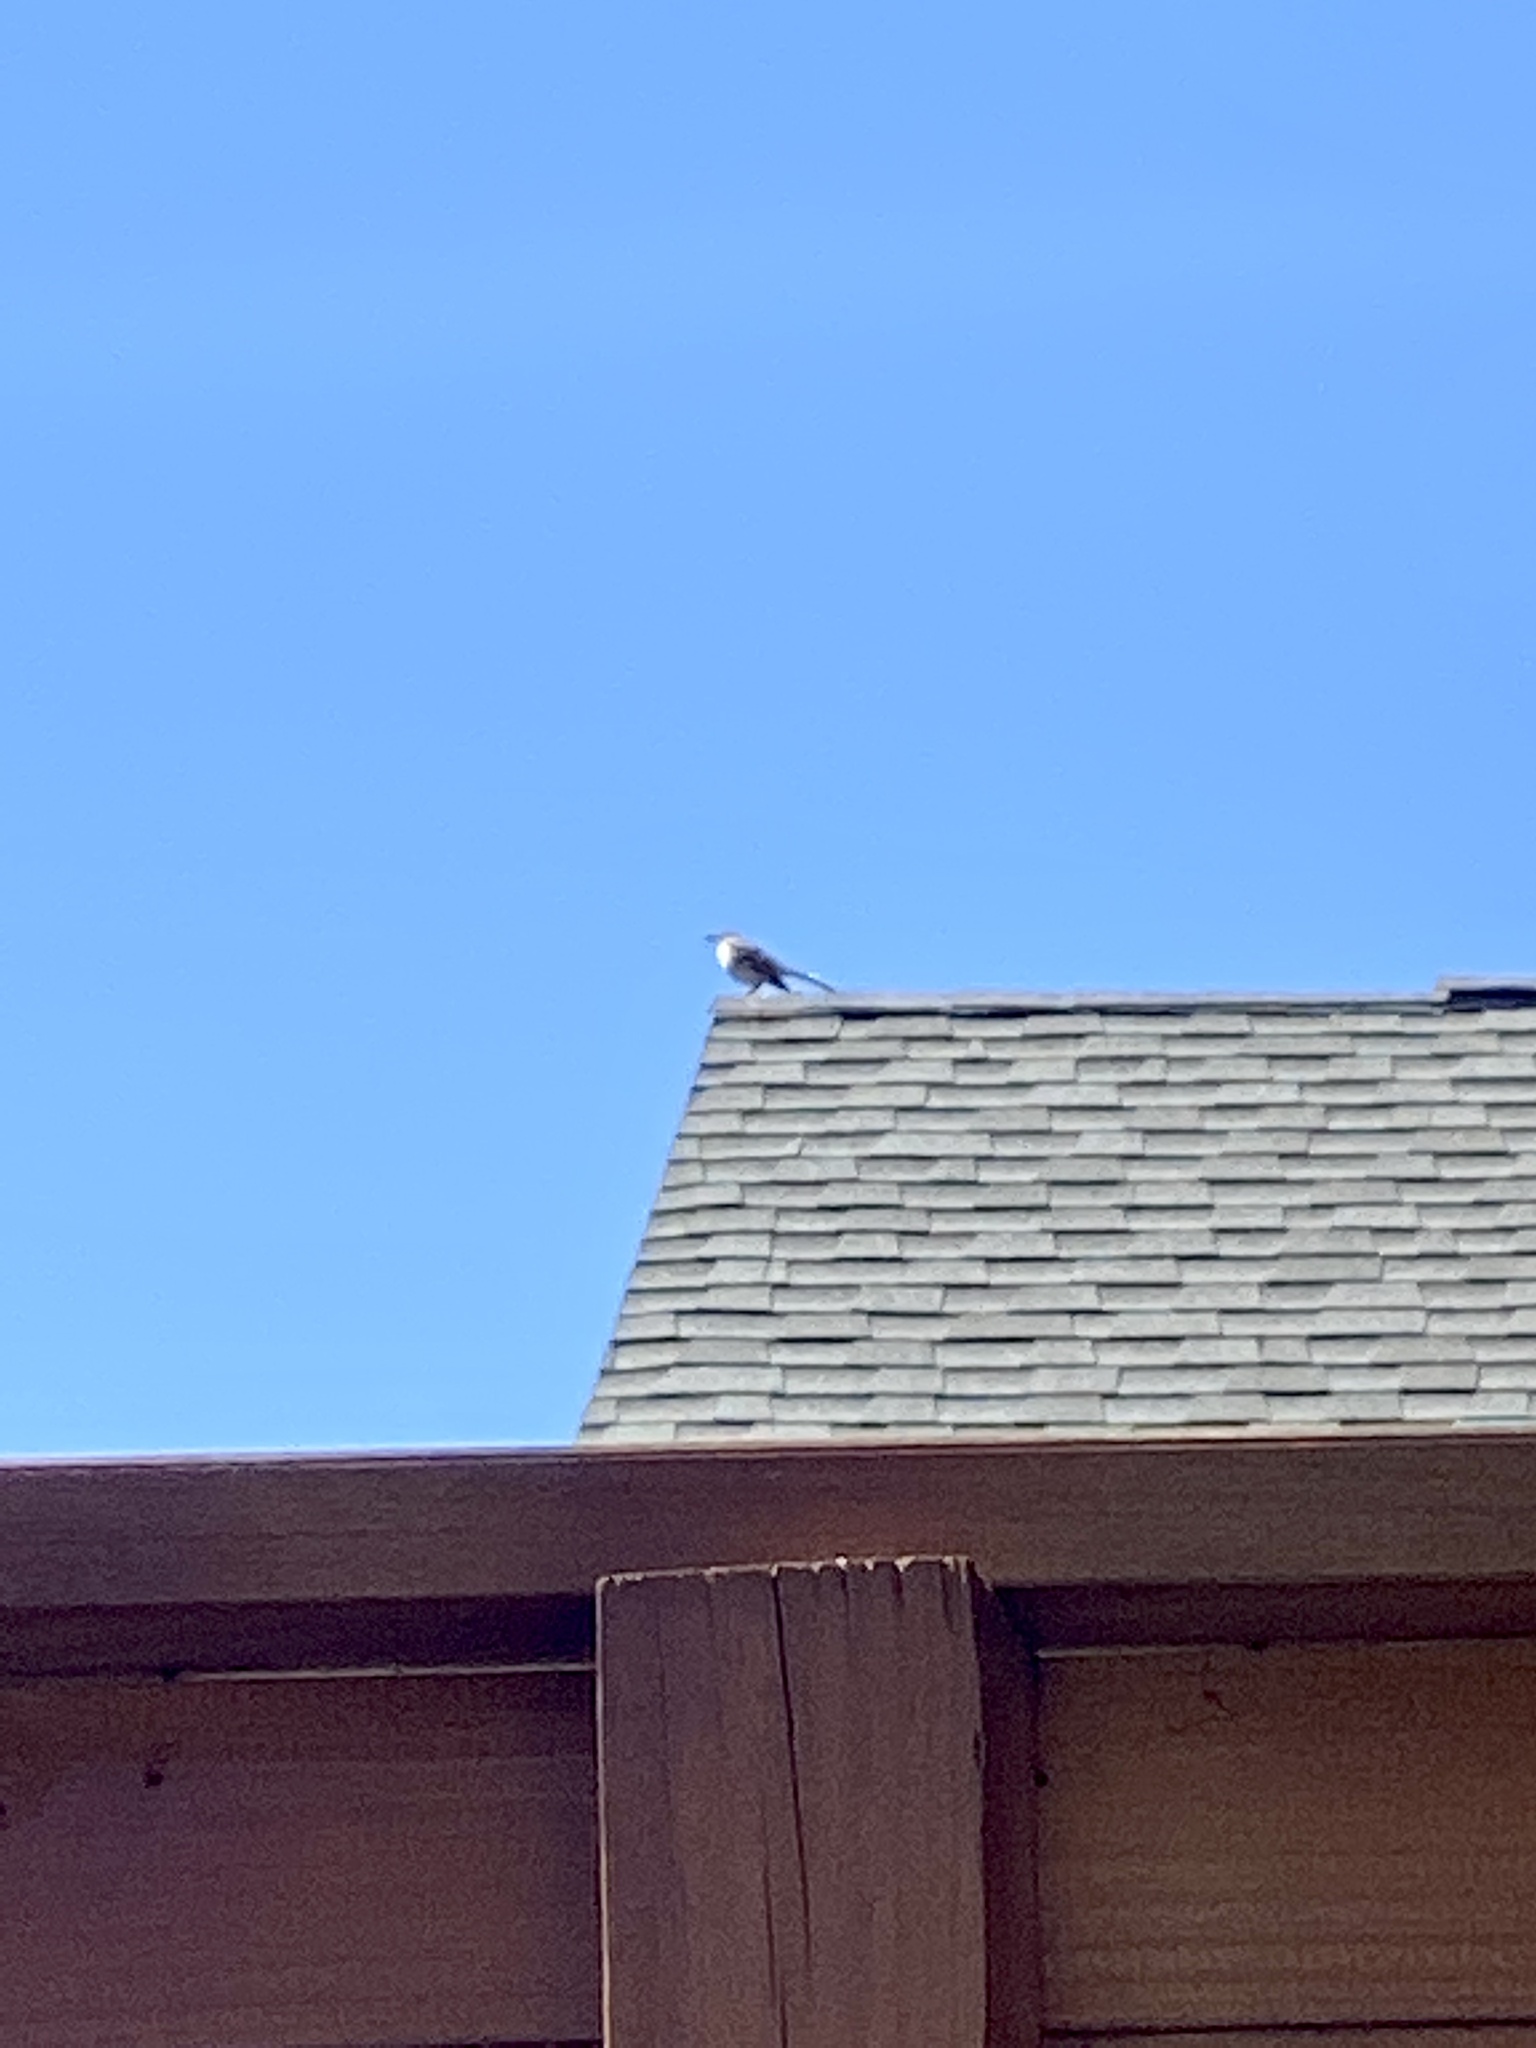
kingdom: Animalia
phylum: Chordata
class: Aves
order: Passeriformes
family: Mimidae
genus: Mimus
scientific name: Mimus polyglottos
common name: Northern mockingbird
